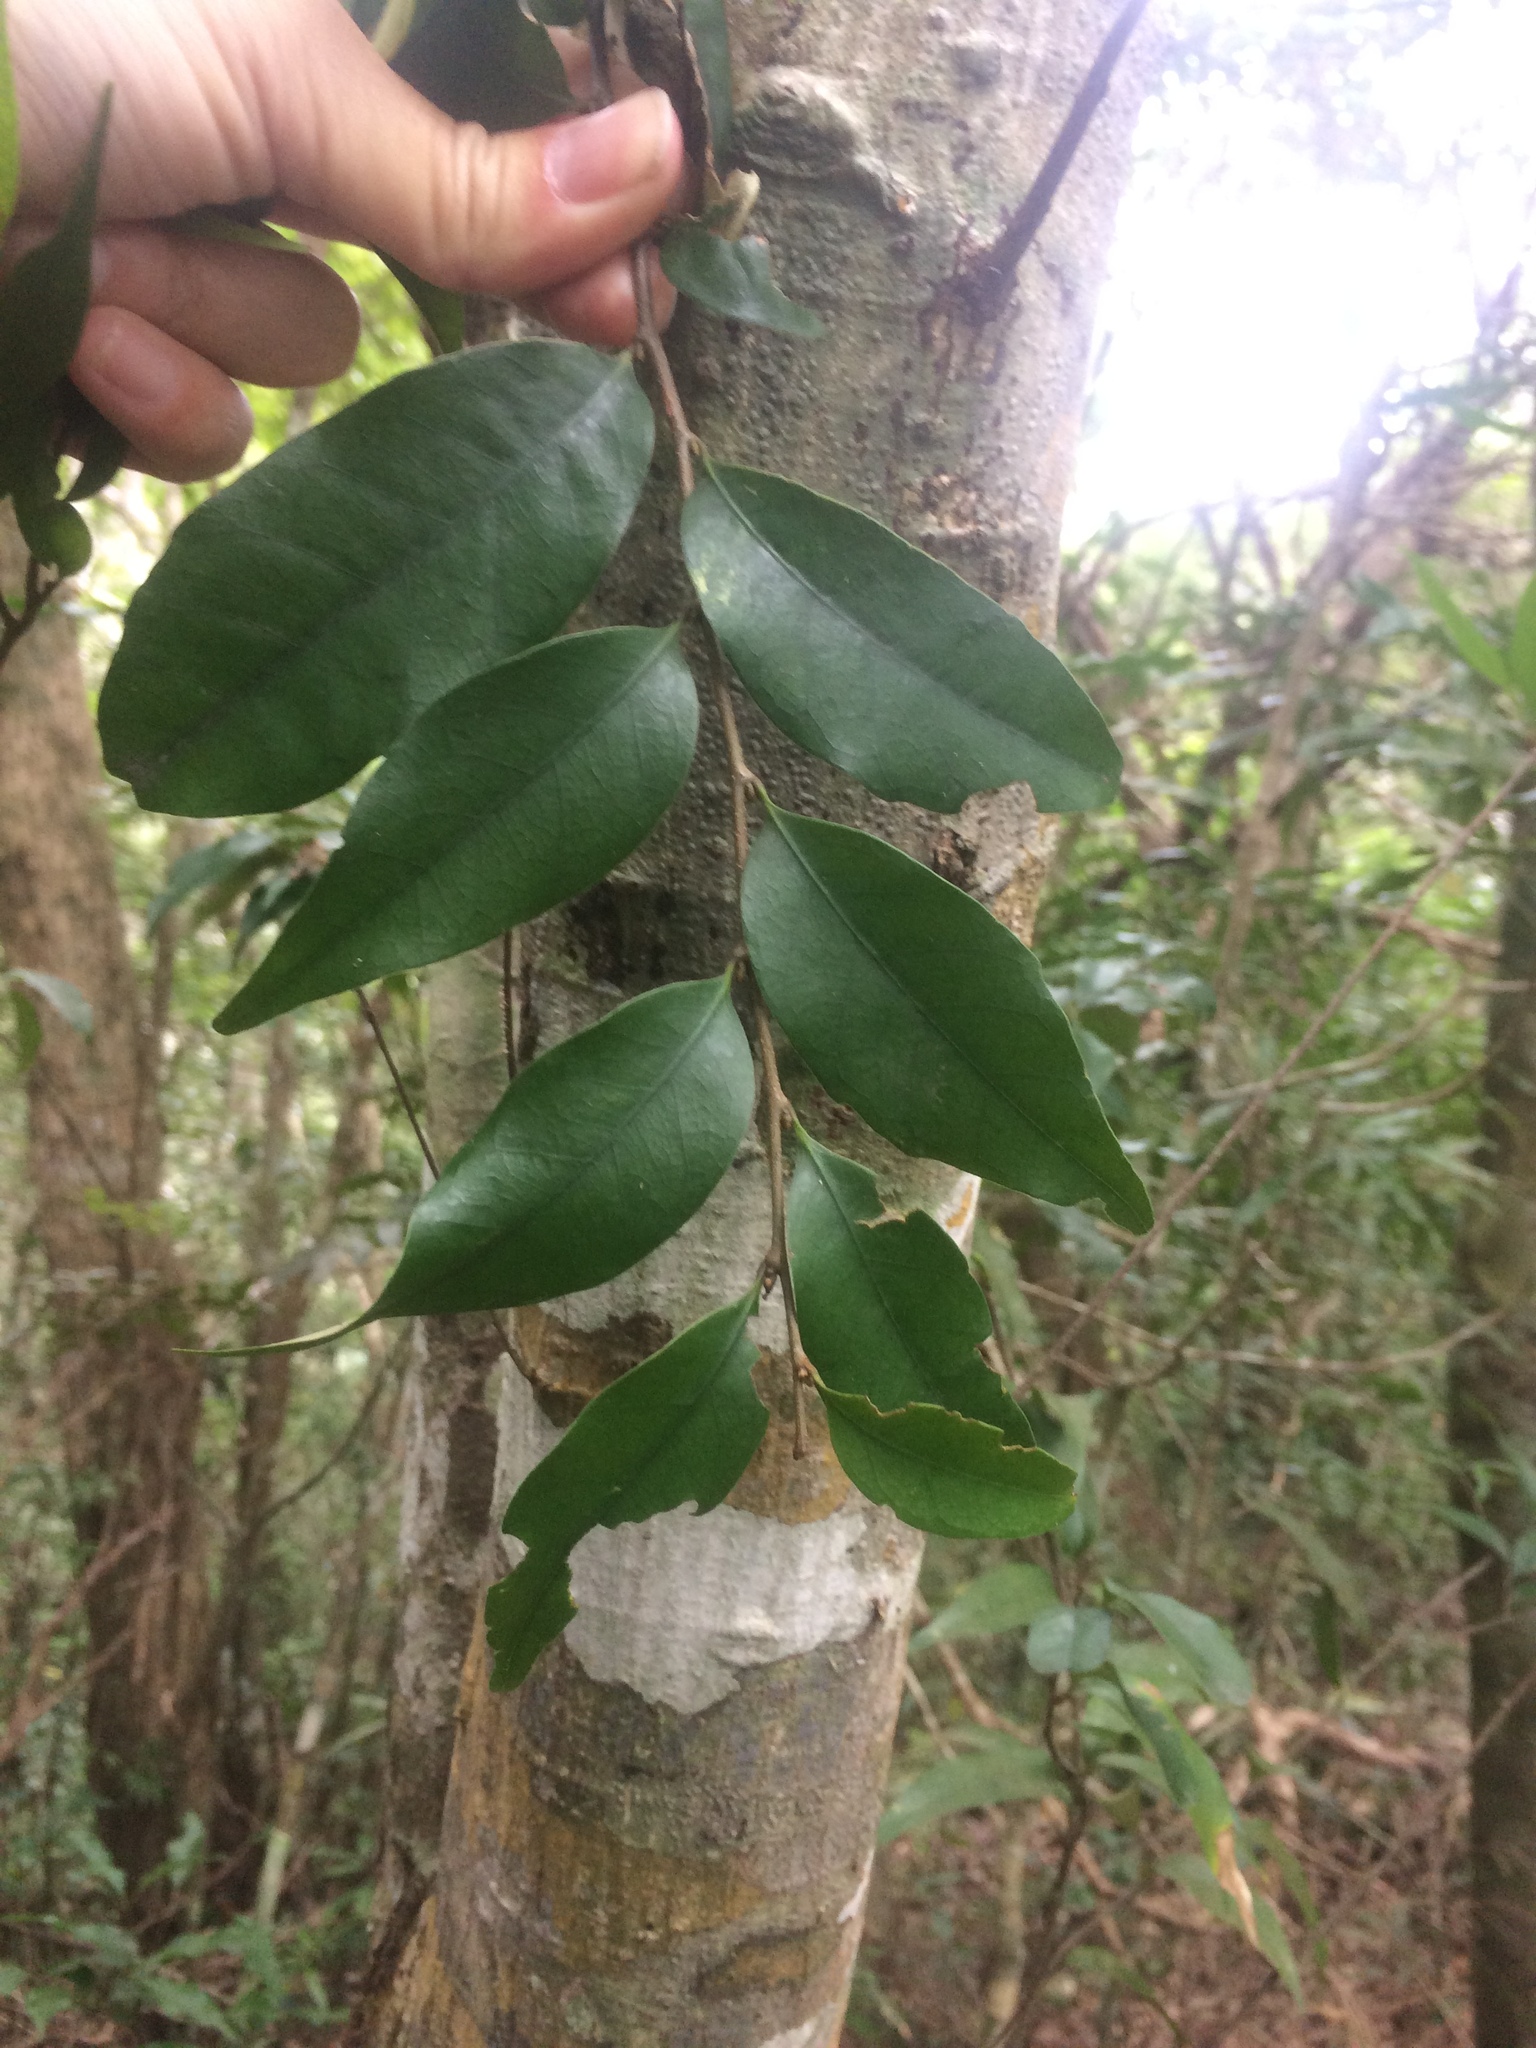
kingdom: Plantae
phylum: Tracheophyta
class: Magnoliopsida
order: Fagales
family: Fagaceae
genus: Castanopsis
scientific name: Castanopsis carlesii
